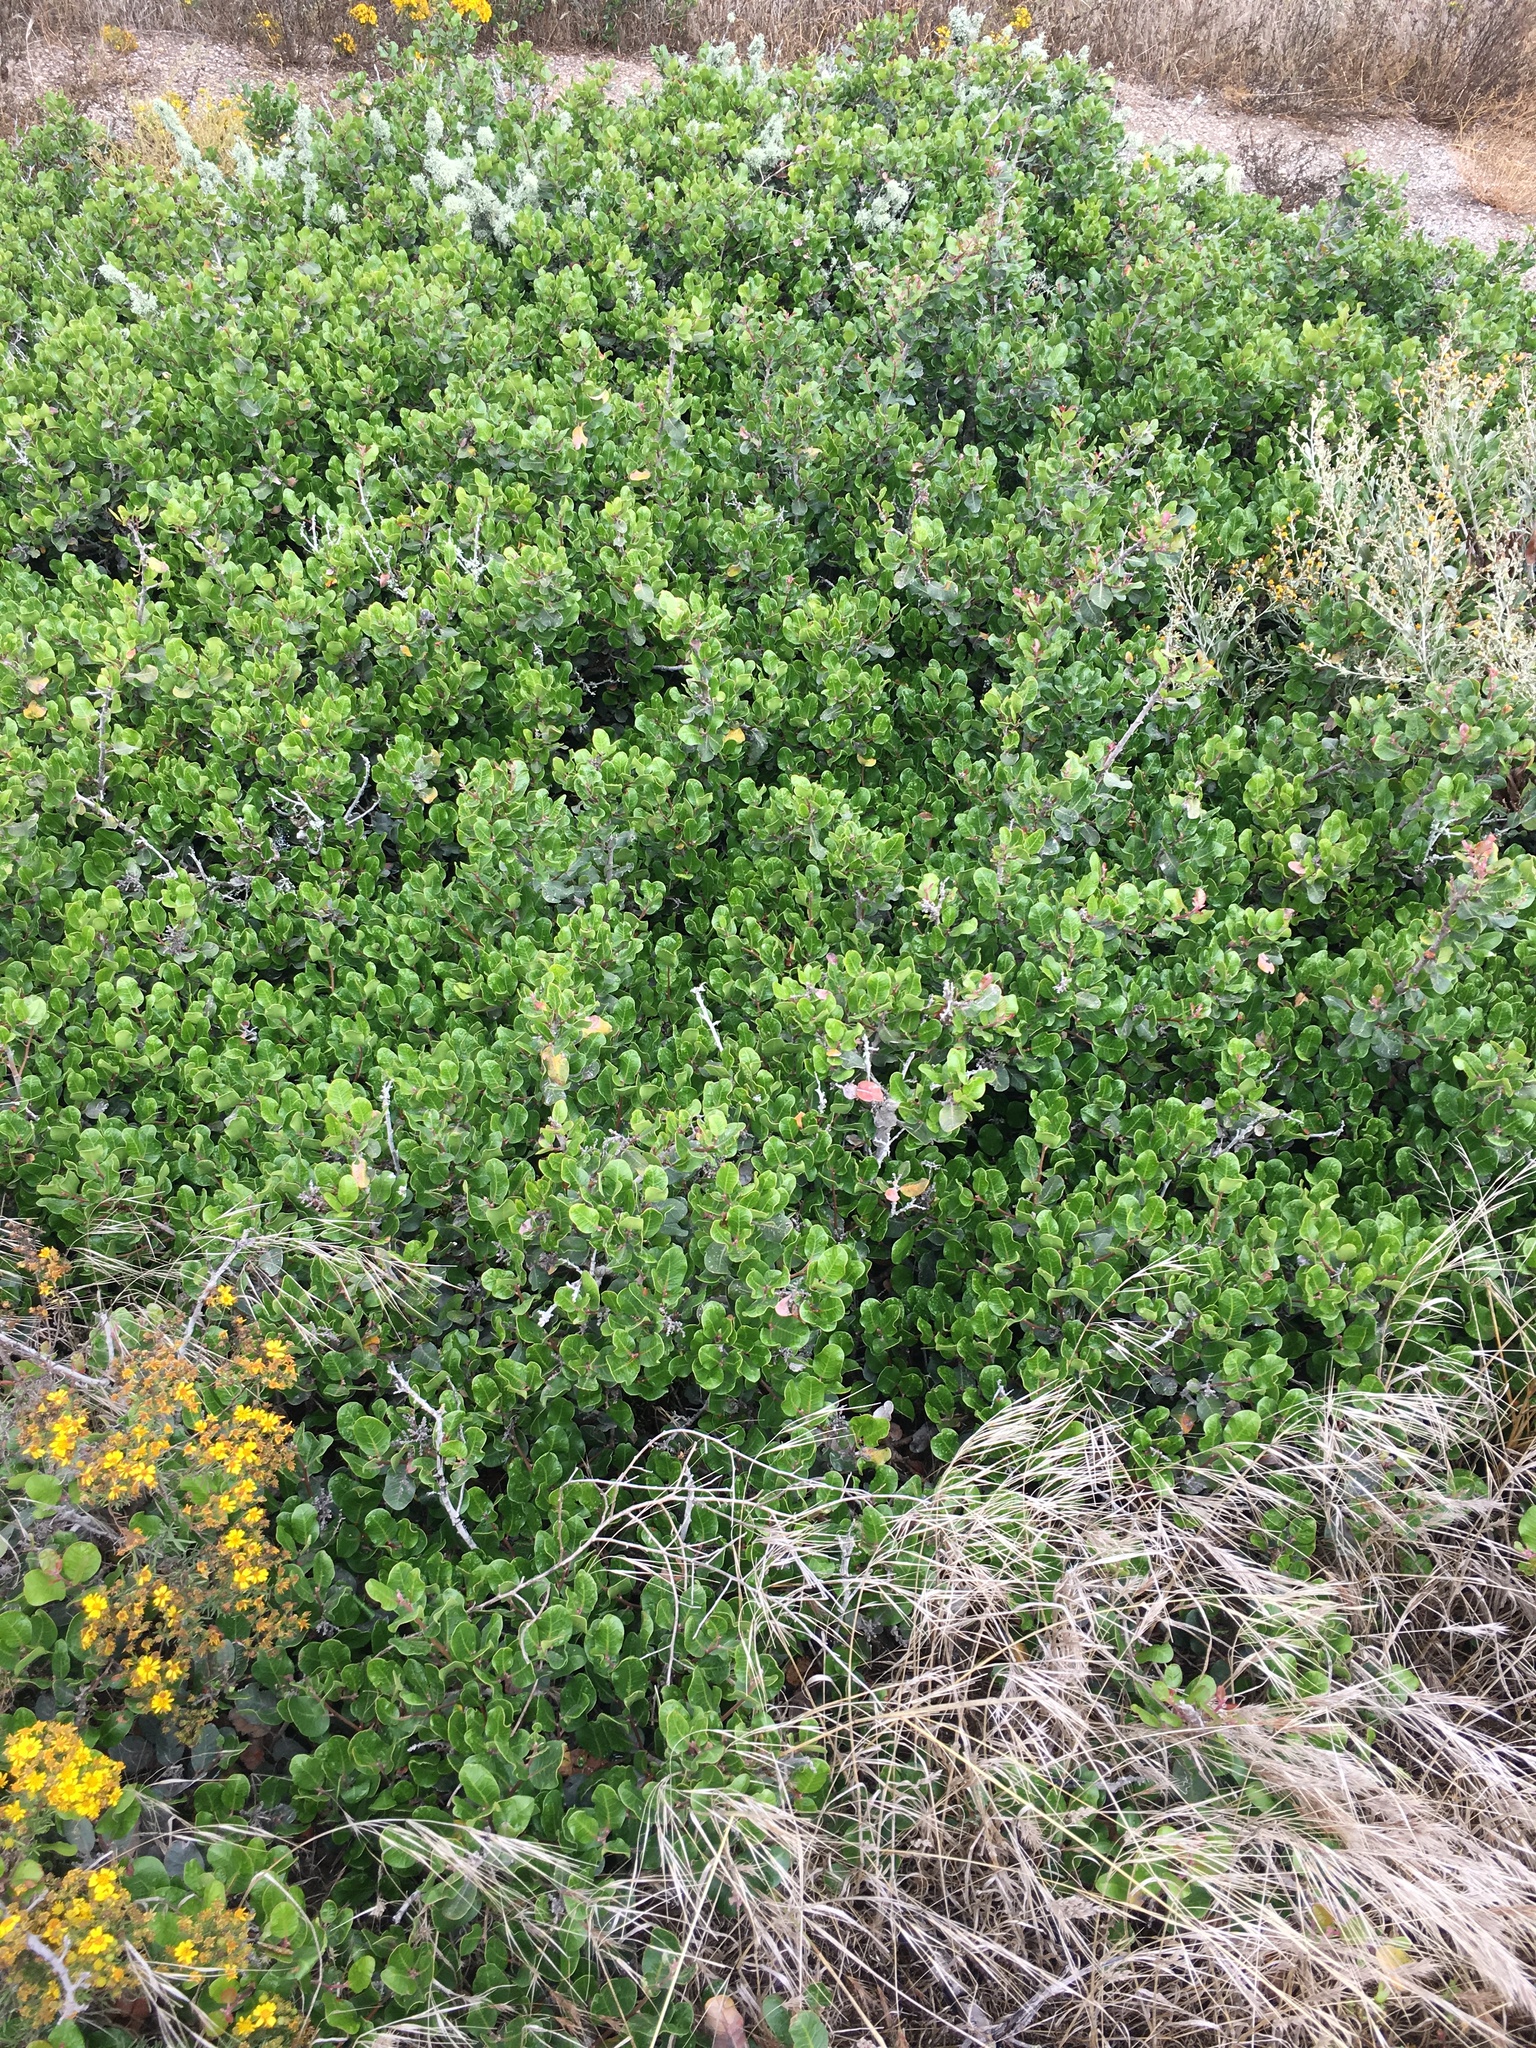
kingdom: Plantae
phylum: Tracheophyta
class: Magnoliopsida
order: Sapindales
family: Anacardiaceae
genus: Rhus
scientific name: Rhus integrifolia
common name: Lemonade sumac
